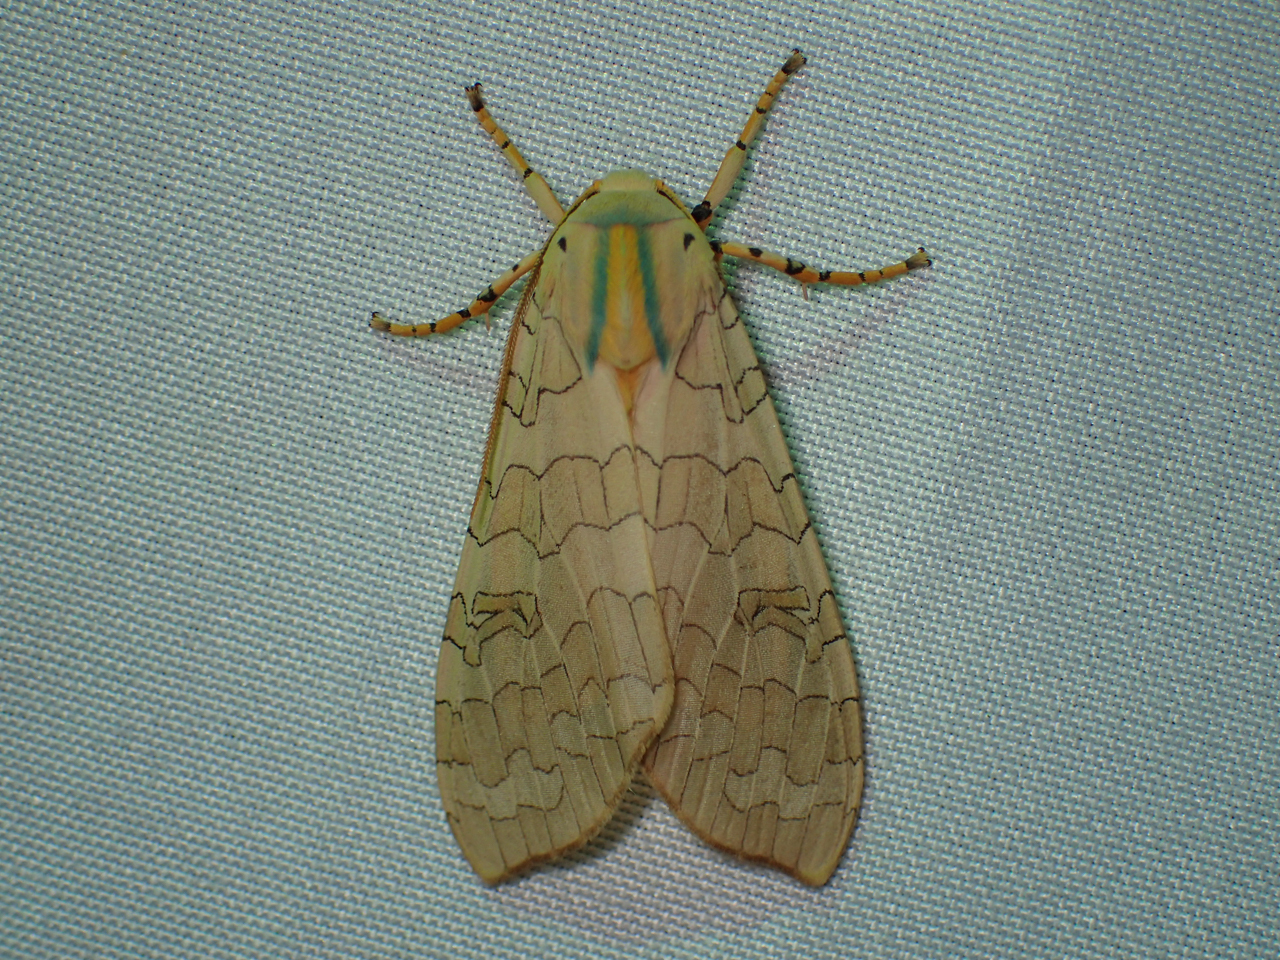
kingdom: Animalia
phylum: Arthropoda
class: Insecta
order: Lepidoptera
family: Erebidae
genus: Halysidota
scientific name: Halysidota
